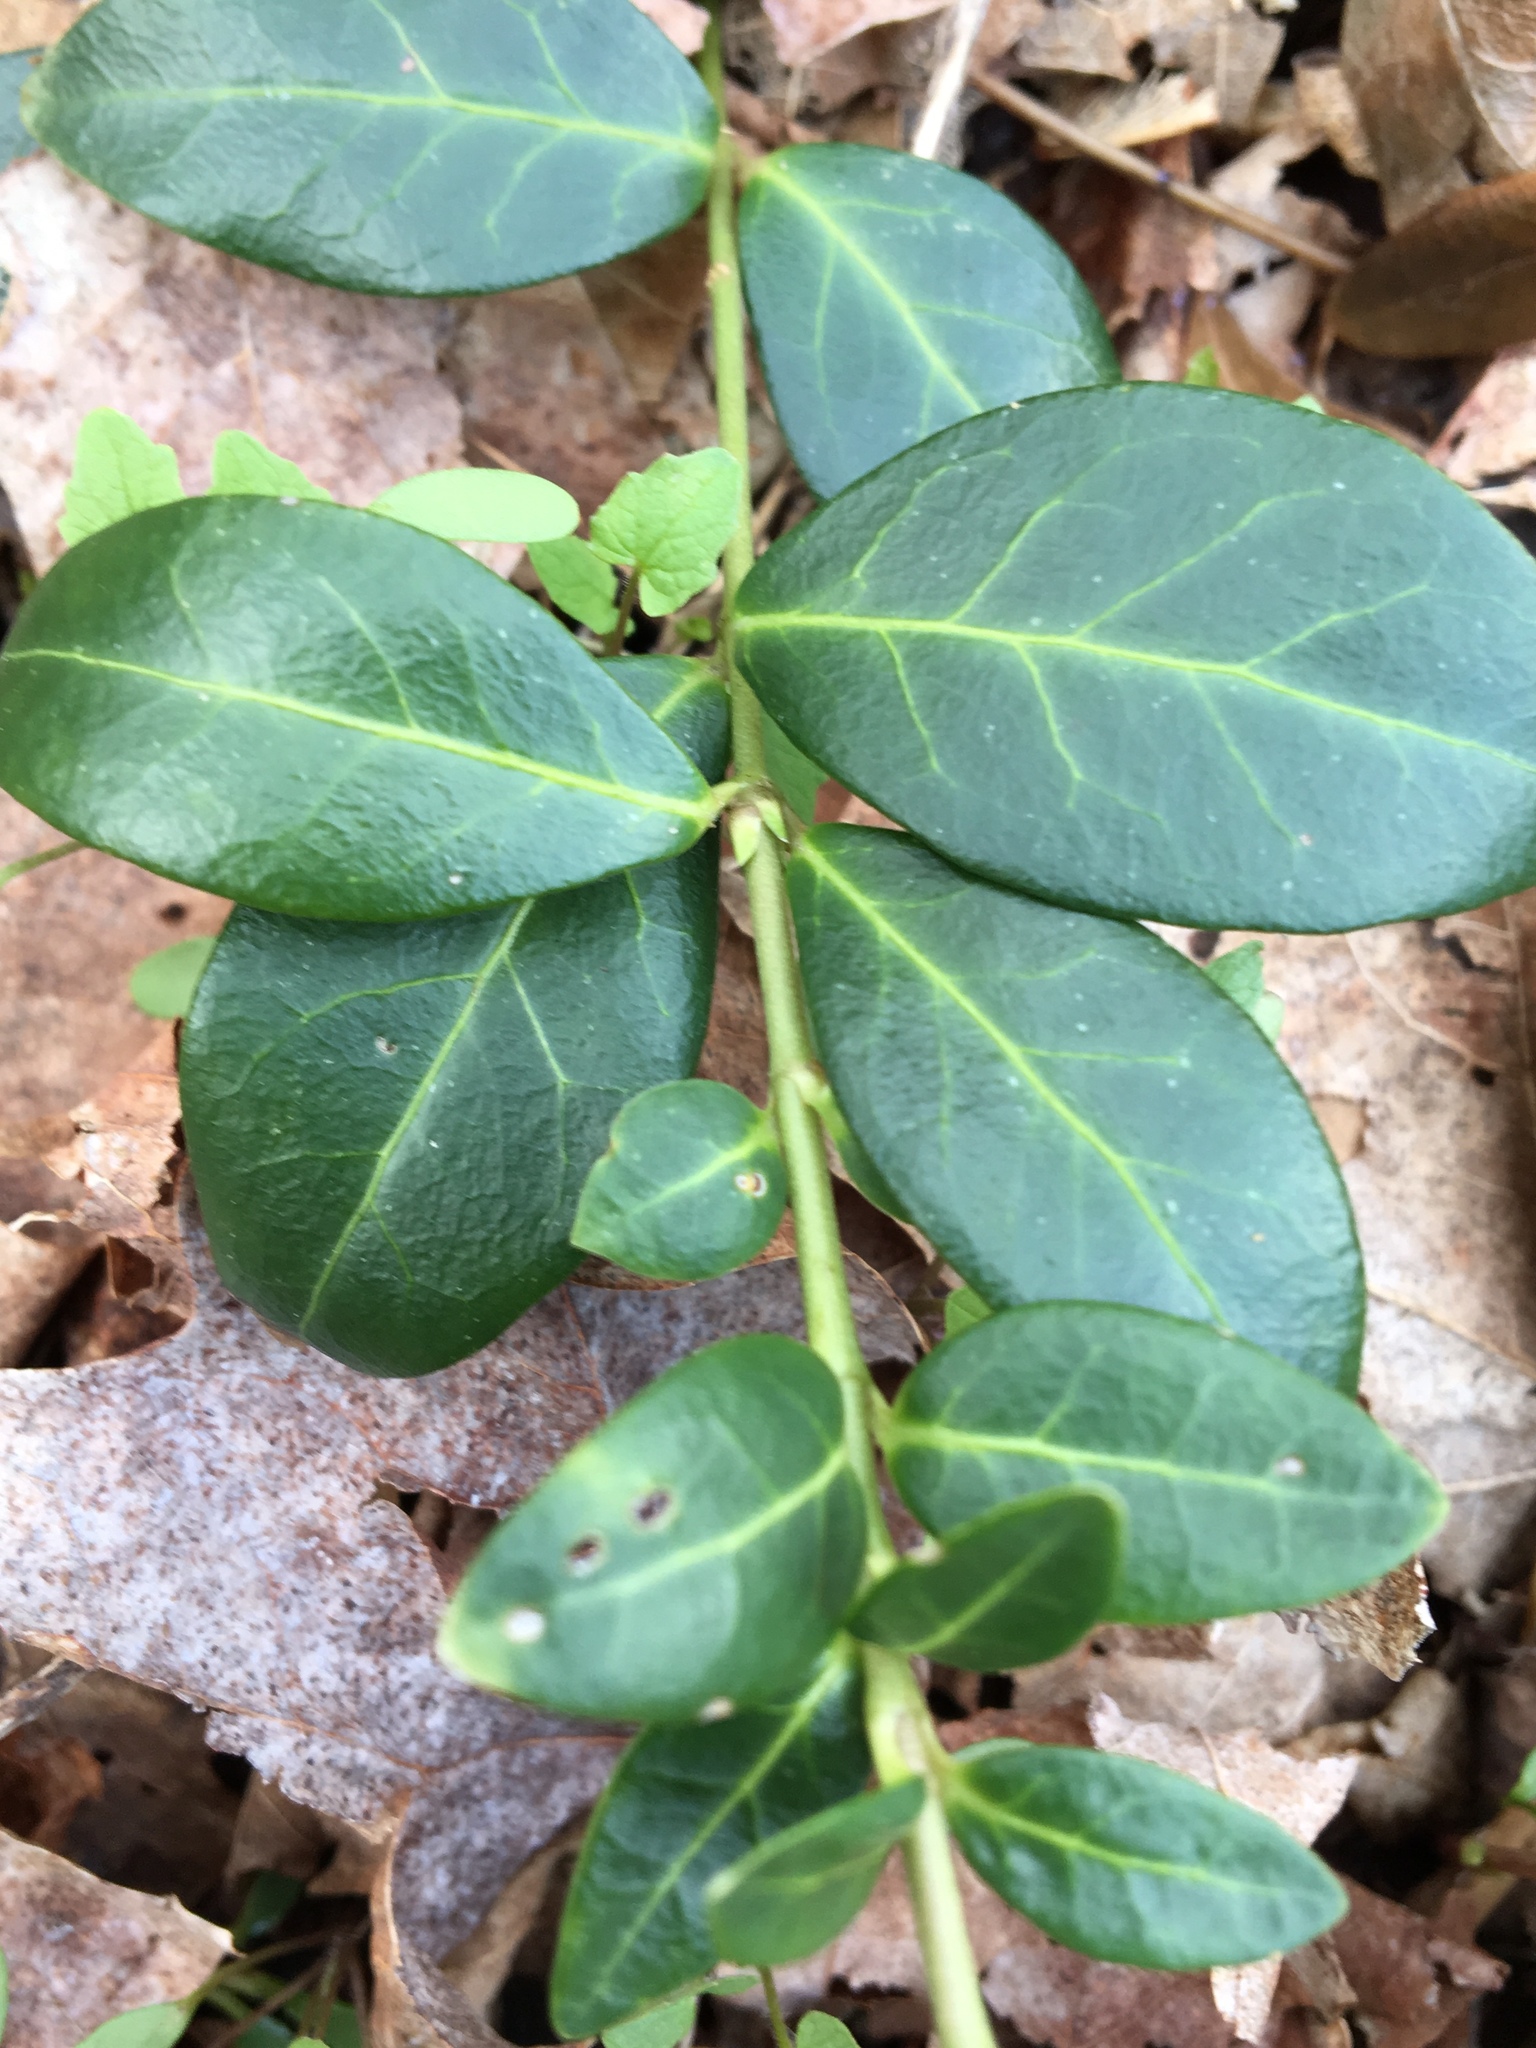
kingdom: Plantae
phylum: Tracheophyta
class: Magnoliopsida
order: Gentianales
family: Apocynaceae
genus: Vinca
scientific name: Vinca minor
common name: Lesser periwinkle
